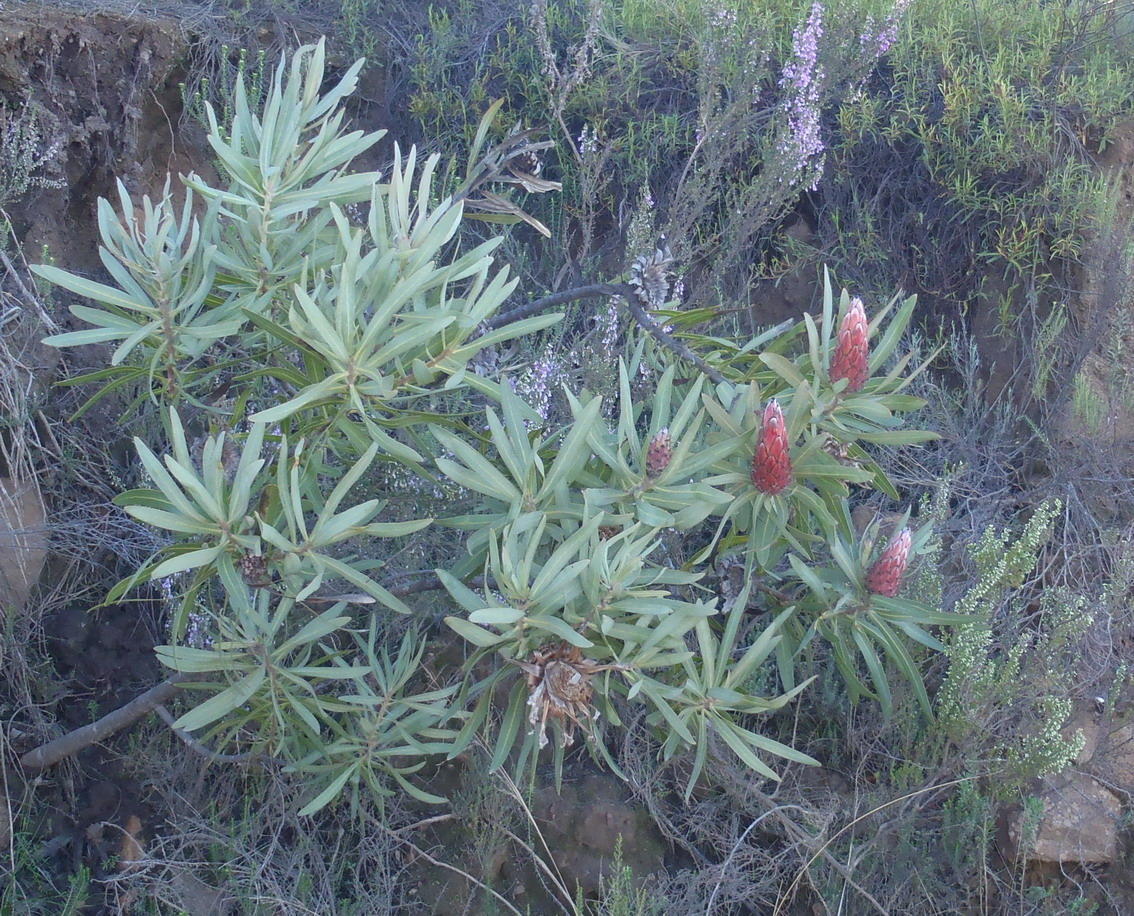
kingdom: Plantae
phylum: Tracheophyta
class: Magnoliopsida
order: Proteales
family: Proteaceae
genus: Protea
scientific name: Protea neriifolia
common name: Blue sugarbush
